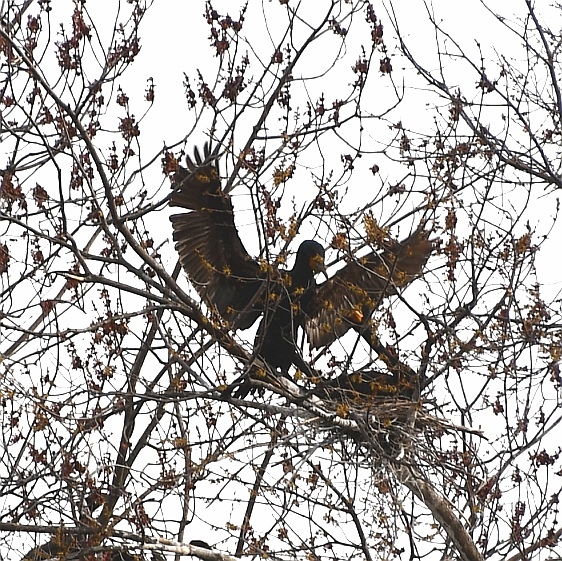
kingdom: Animalia
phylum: Chordata
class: Aves
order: Suliformes
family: Phalacrocoracidae
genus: Phalacrocorax
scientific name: Phalacrocorax auritus
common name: Double-crested cormorant
